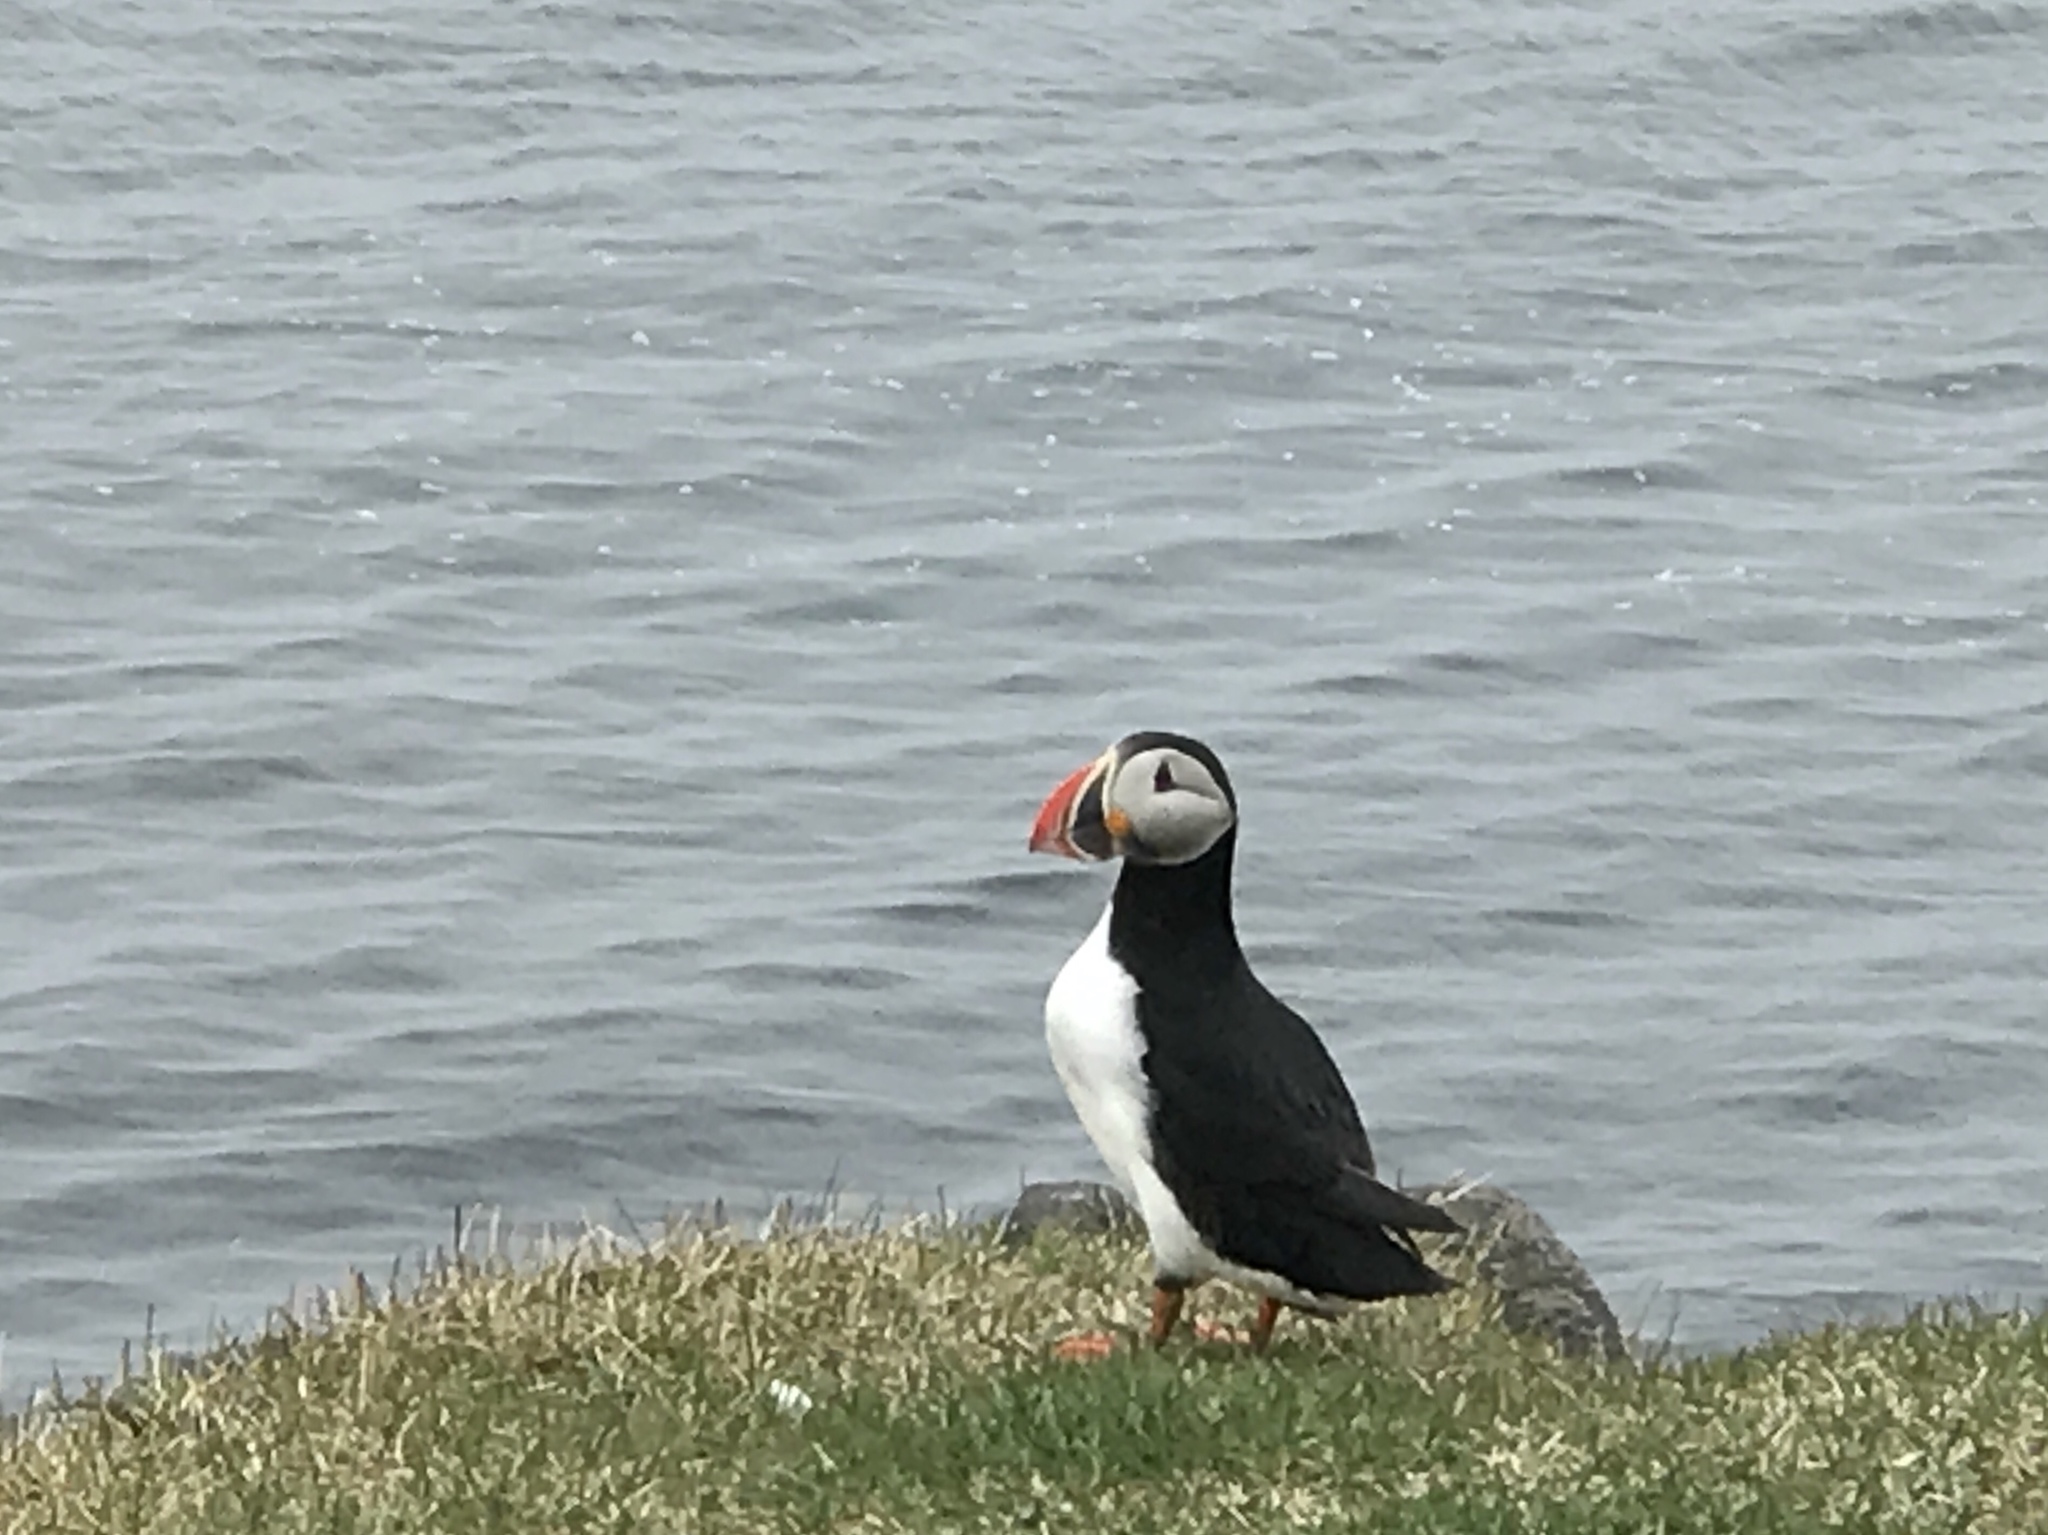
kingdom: Animalia
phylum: Chordata
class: Aves
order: Charadriiformes
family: Alcidae
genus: Fratercula
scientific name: Fratercula arctica
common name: Atlantic puffin
